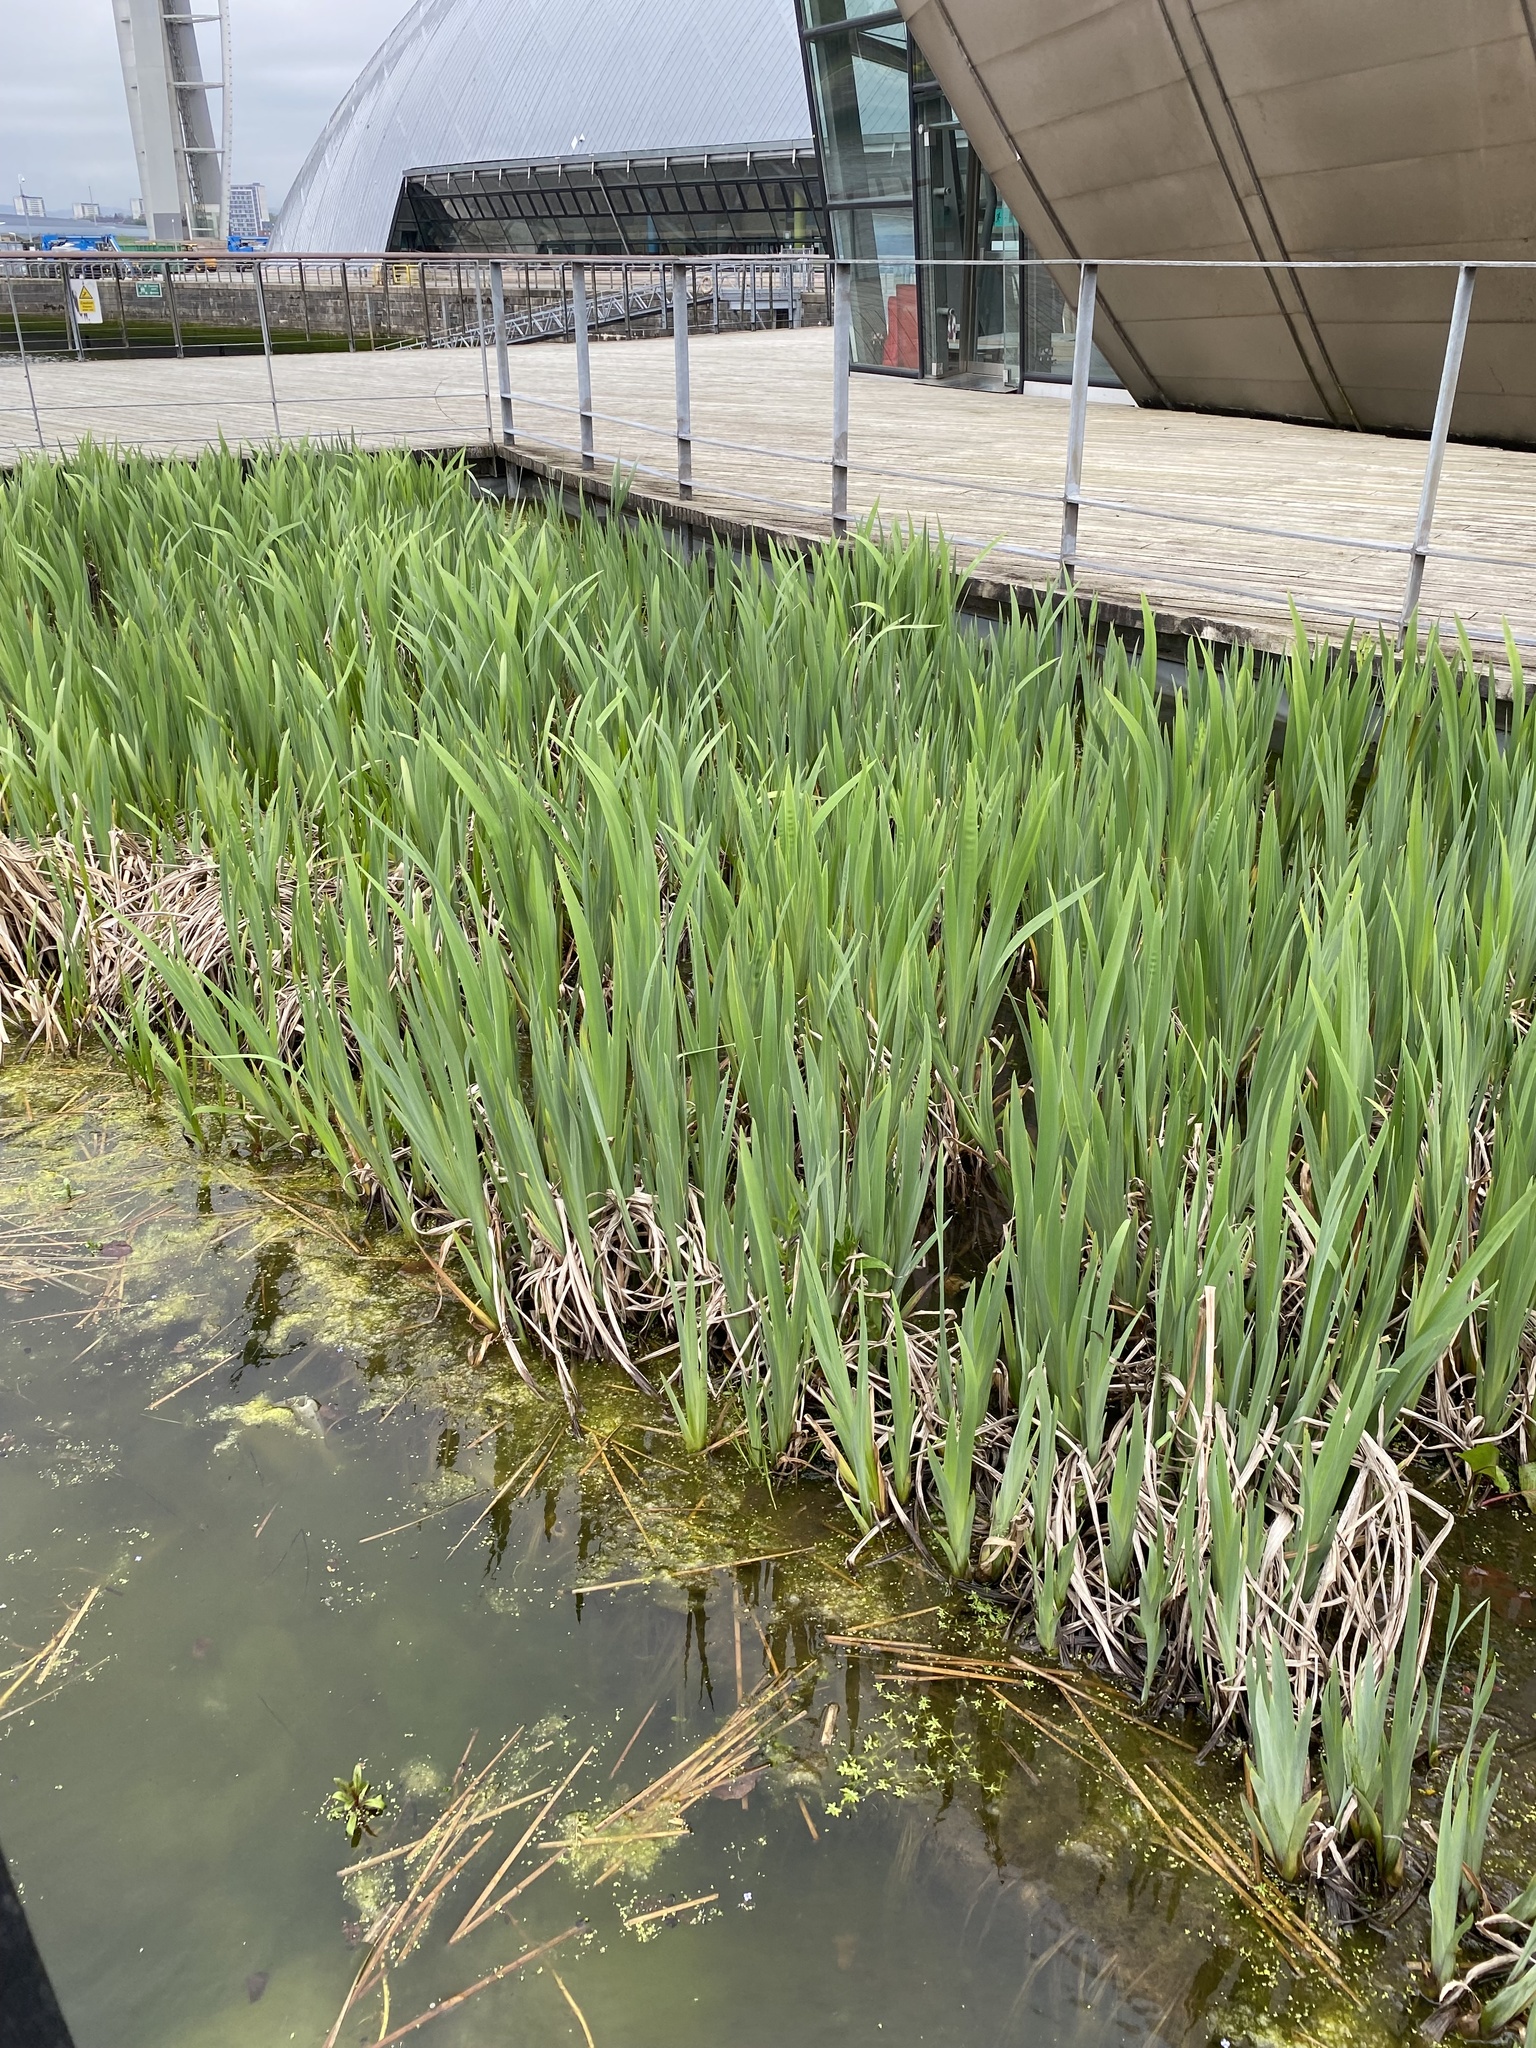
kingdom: Plantae
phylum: Tracheophyta
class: Liliopsida
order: Asparagales
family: Iridaceae
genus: Iris
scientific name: Iris pseudacorus
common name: Yellow flag
